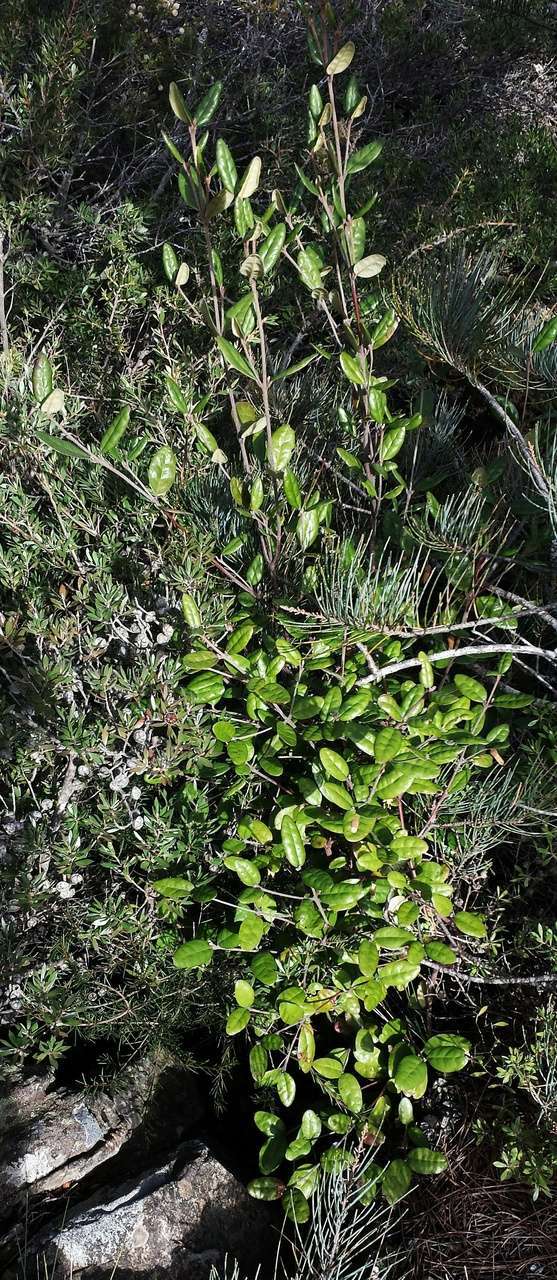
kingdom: Plantae
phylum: Tracheophyta
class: Magnoliopsida
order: Sapindales
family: Rutaceae
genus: Correa
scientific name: Correa lawrenceana
